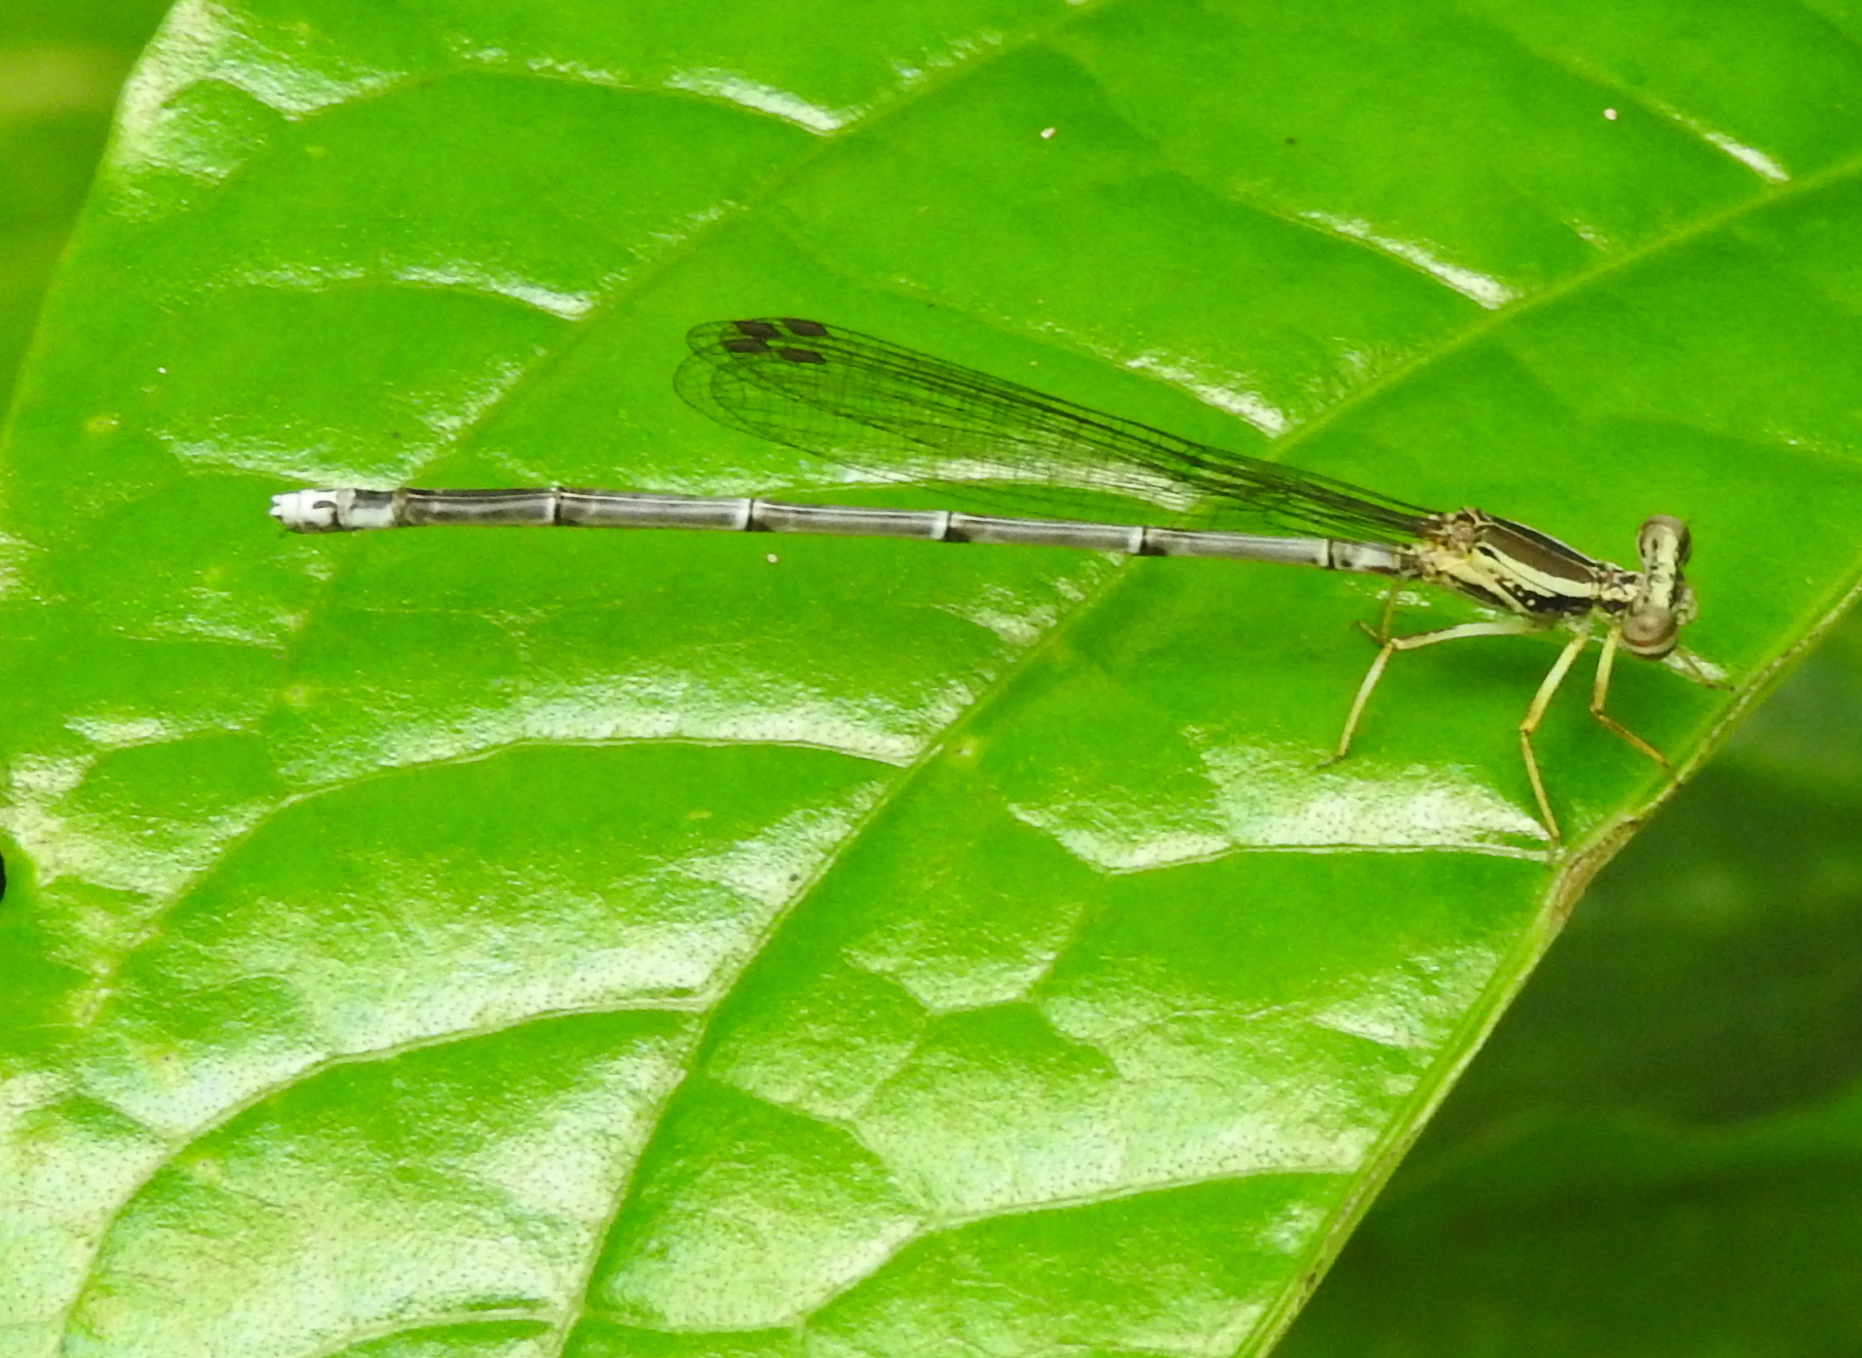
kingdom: Animalia
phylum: Arthropoda
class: Insecta
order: Odonata
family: Platycnemididae
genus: Copera
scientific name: Copera marginipes
